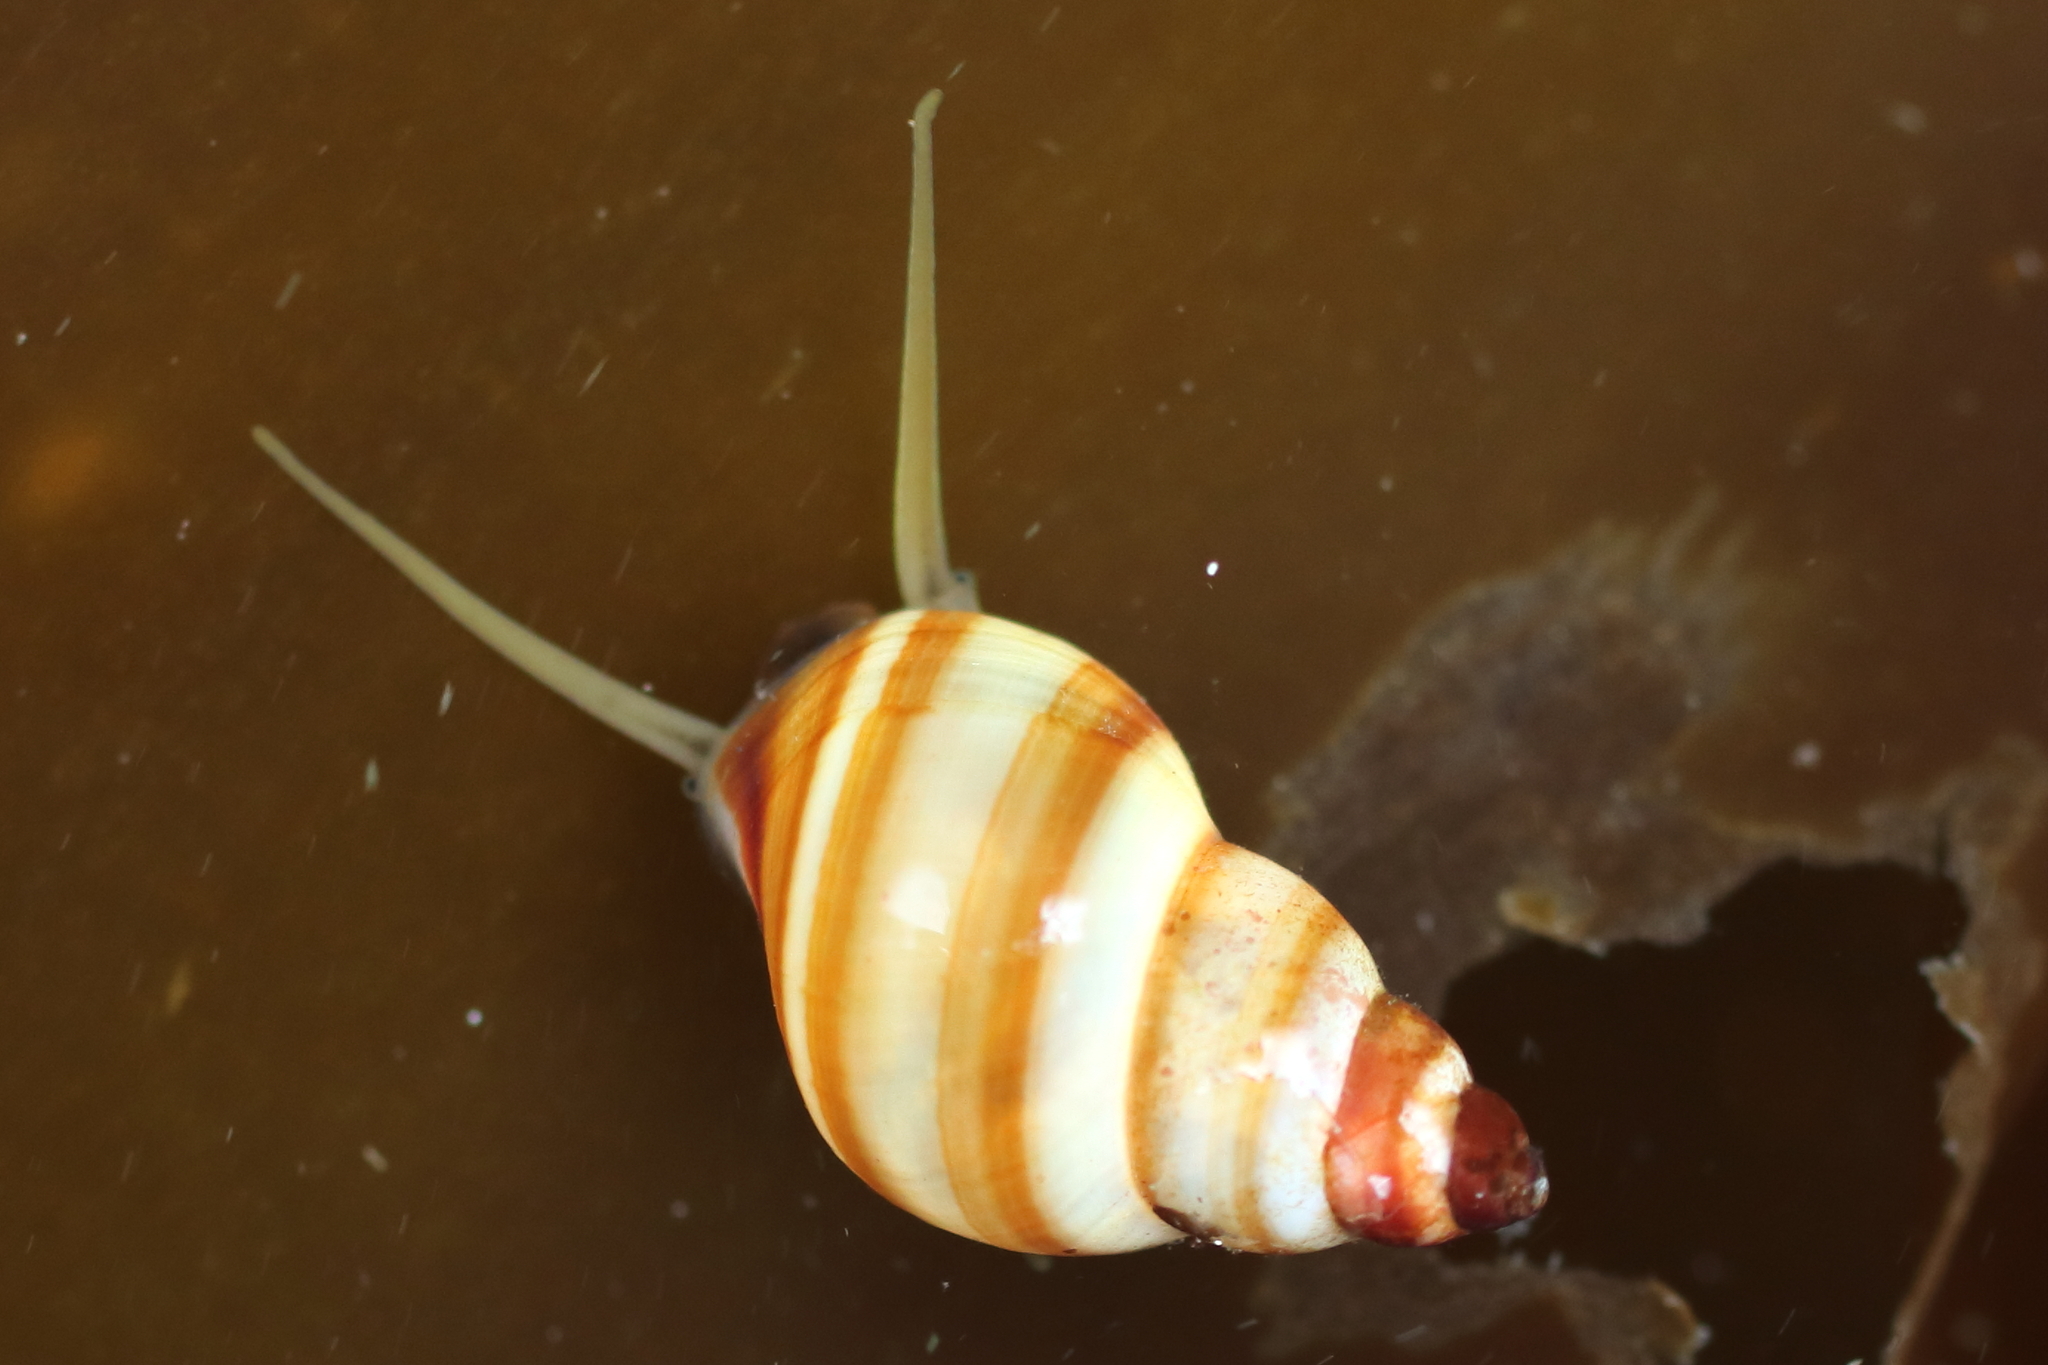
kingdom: Animalia
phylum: Mollusca
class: Gastropoda
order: Littorinimorpha
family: Littorinidae
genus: Lacuna
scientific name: Lacuna vincta
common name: Banded chink shell
